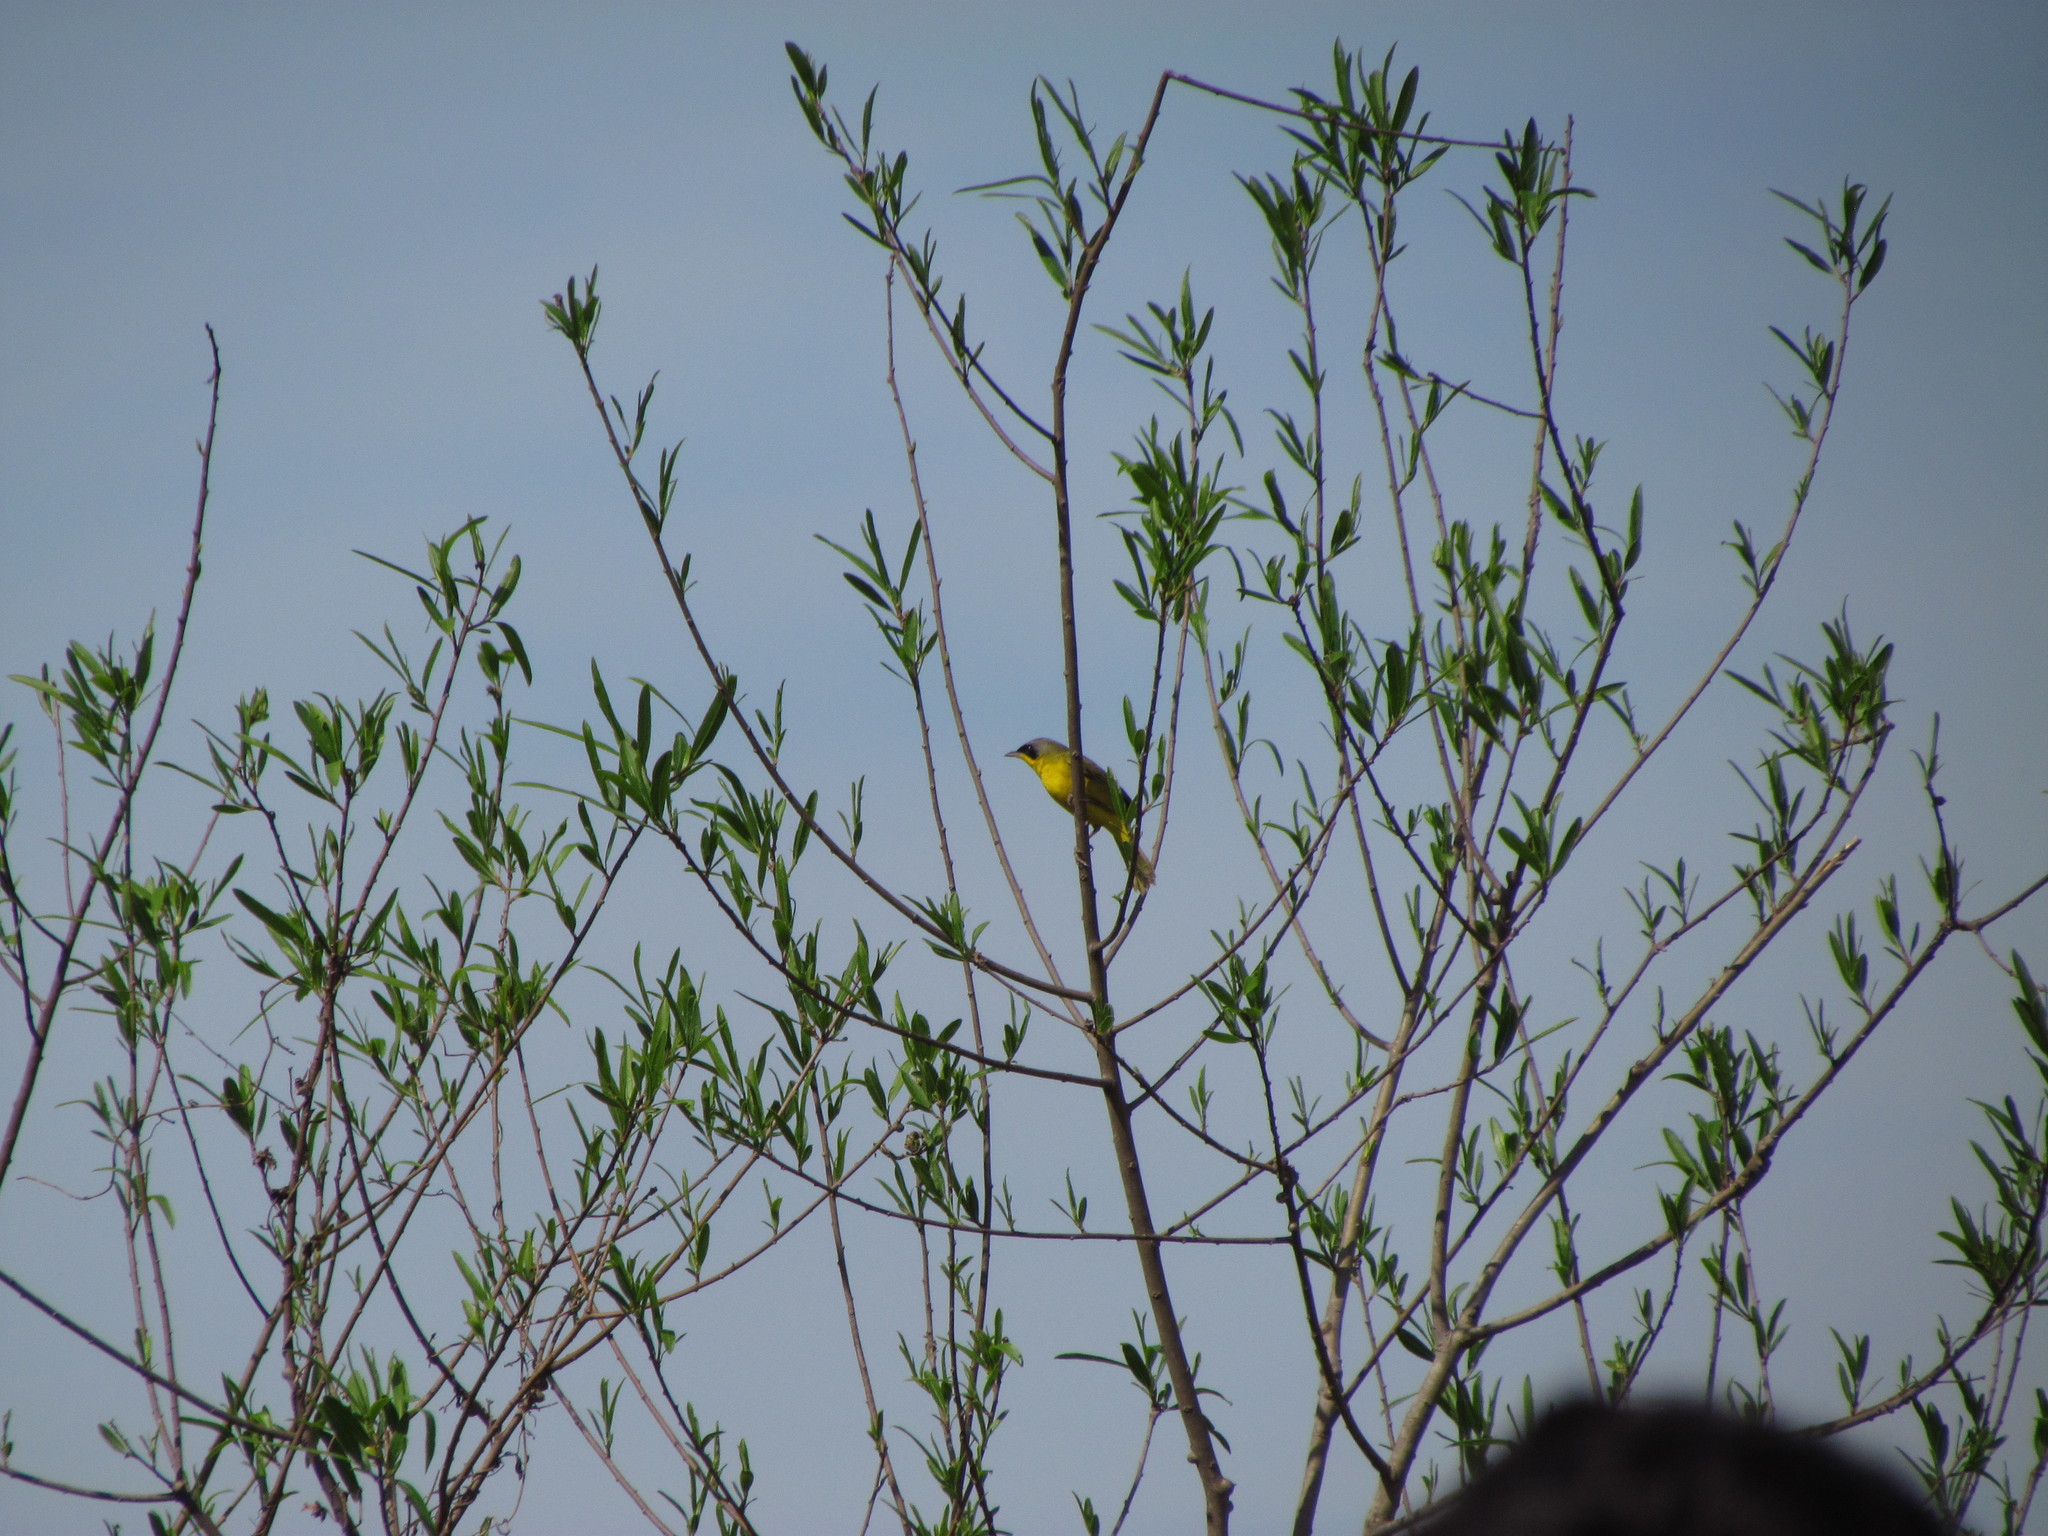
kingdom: Animalia
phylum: Chordata
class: Aves
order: Passeriformes
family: Parulidae
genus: Geothlypis
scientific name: Geothlypis velata
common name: Southern yellowthroat
